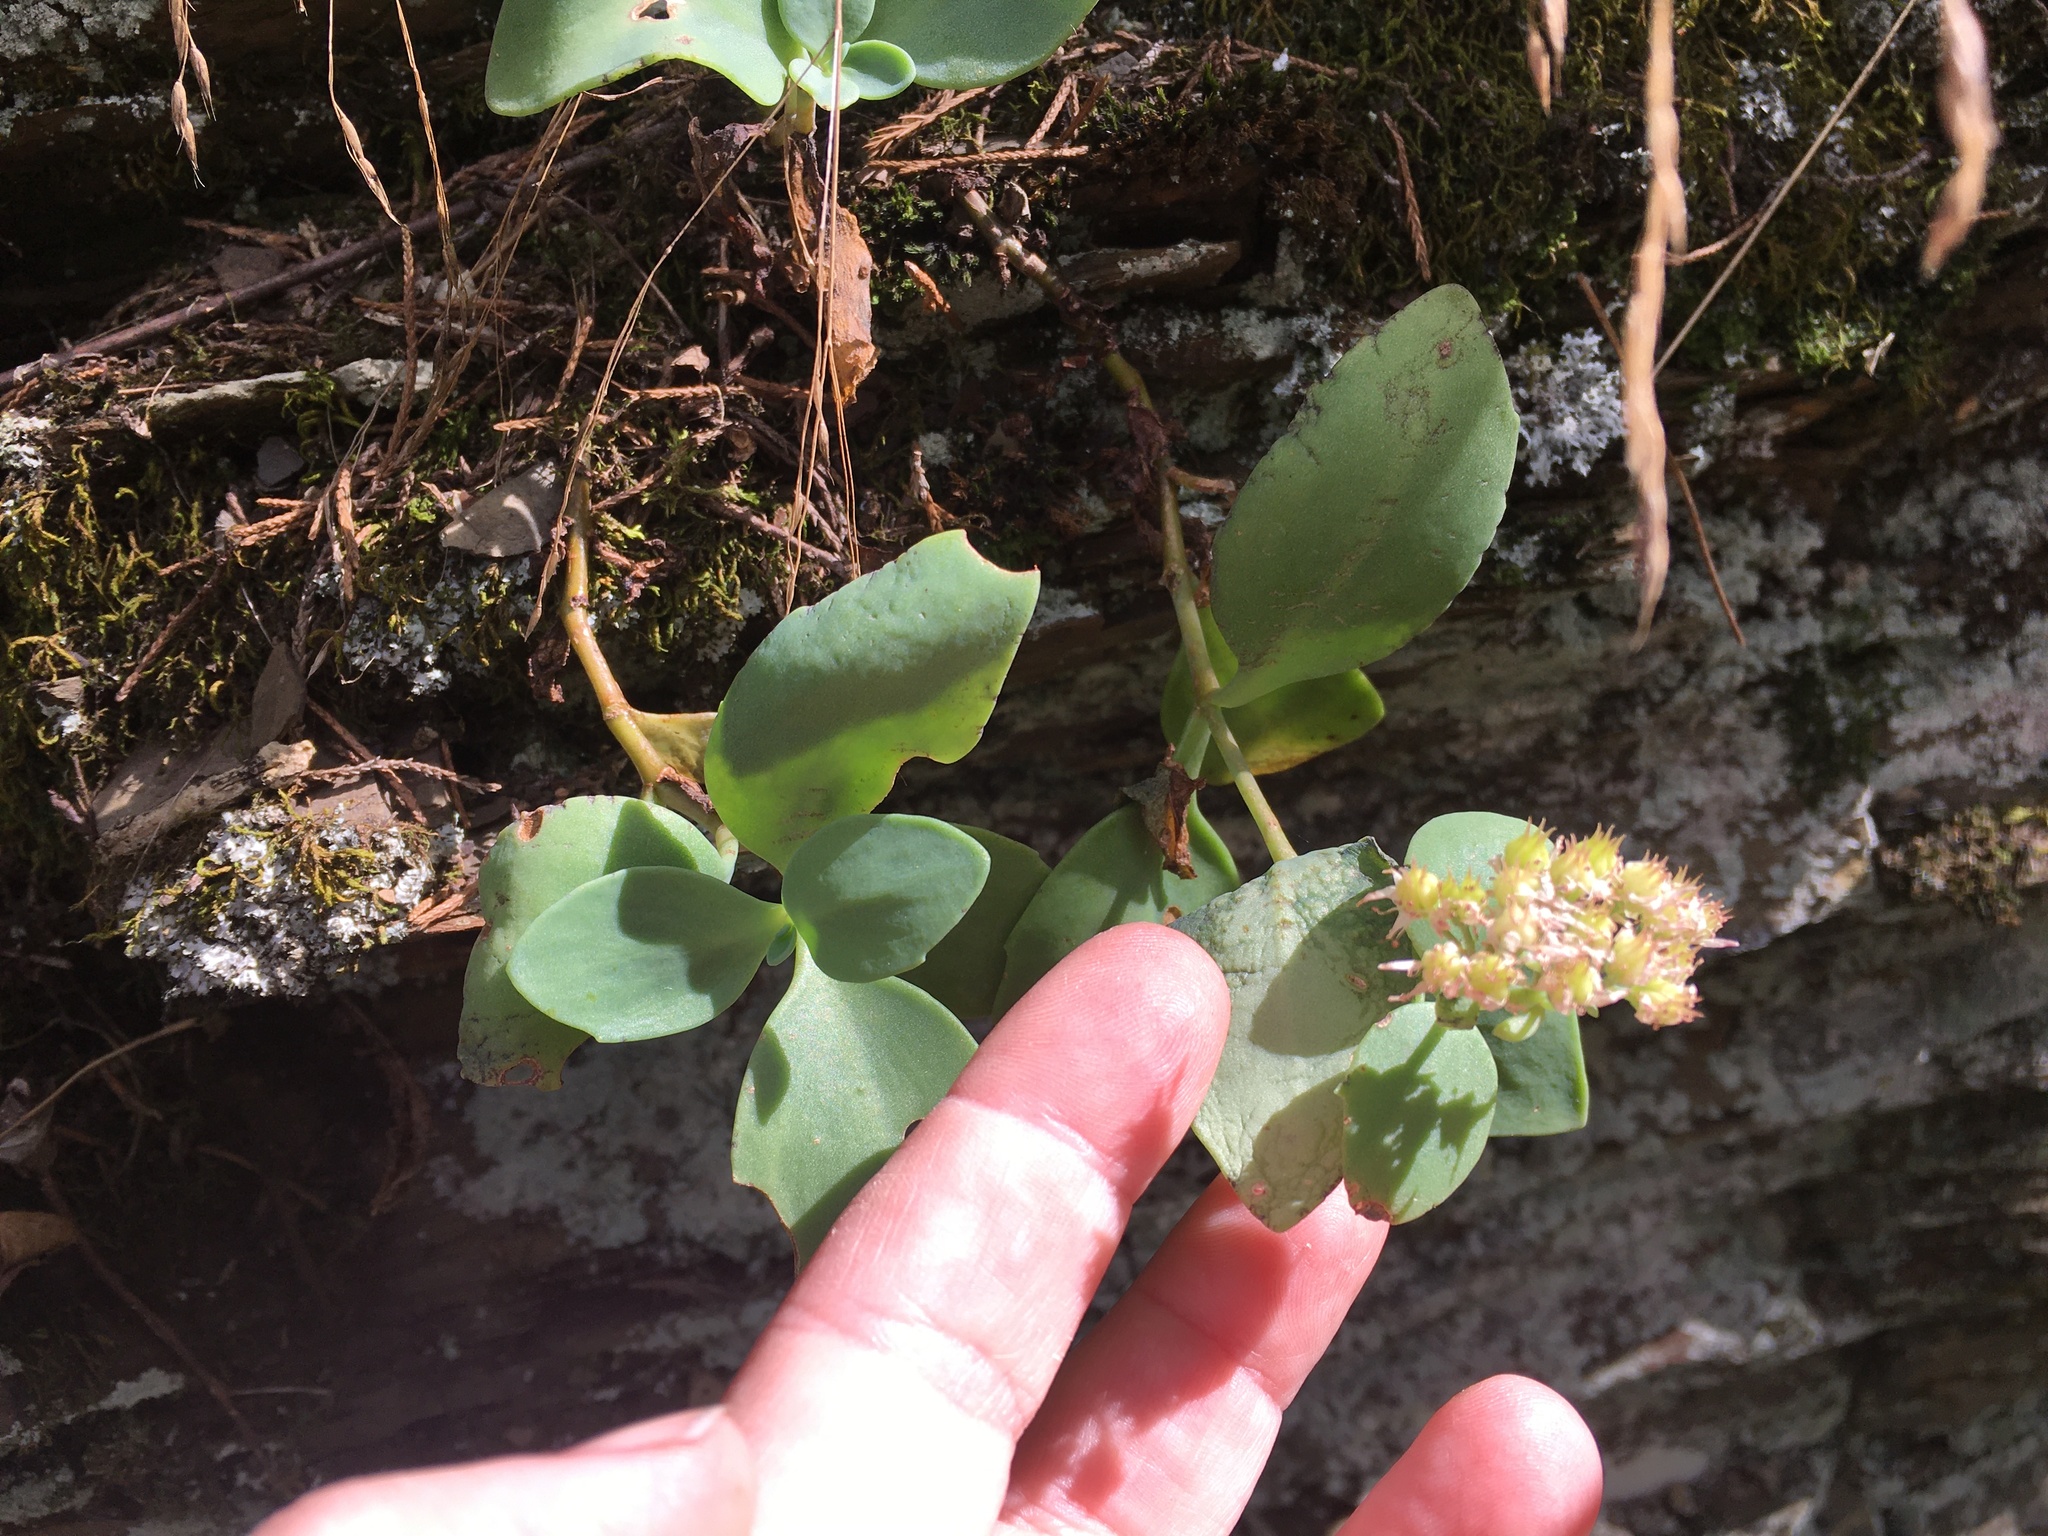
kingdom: Plantae
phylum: Tracheophyta
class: Magnoliopsida
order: Saxifragales
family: Crassulaceae
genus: Hylotelephium
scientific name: Hylotelephium telephioides
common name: Allegheny stonecrop
